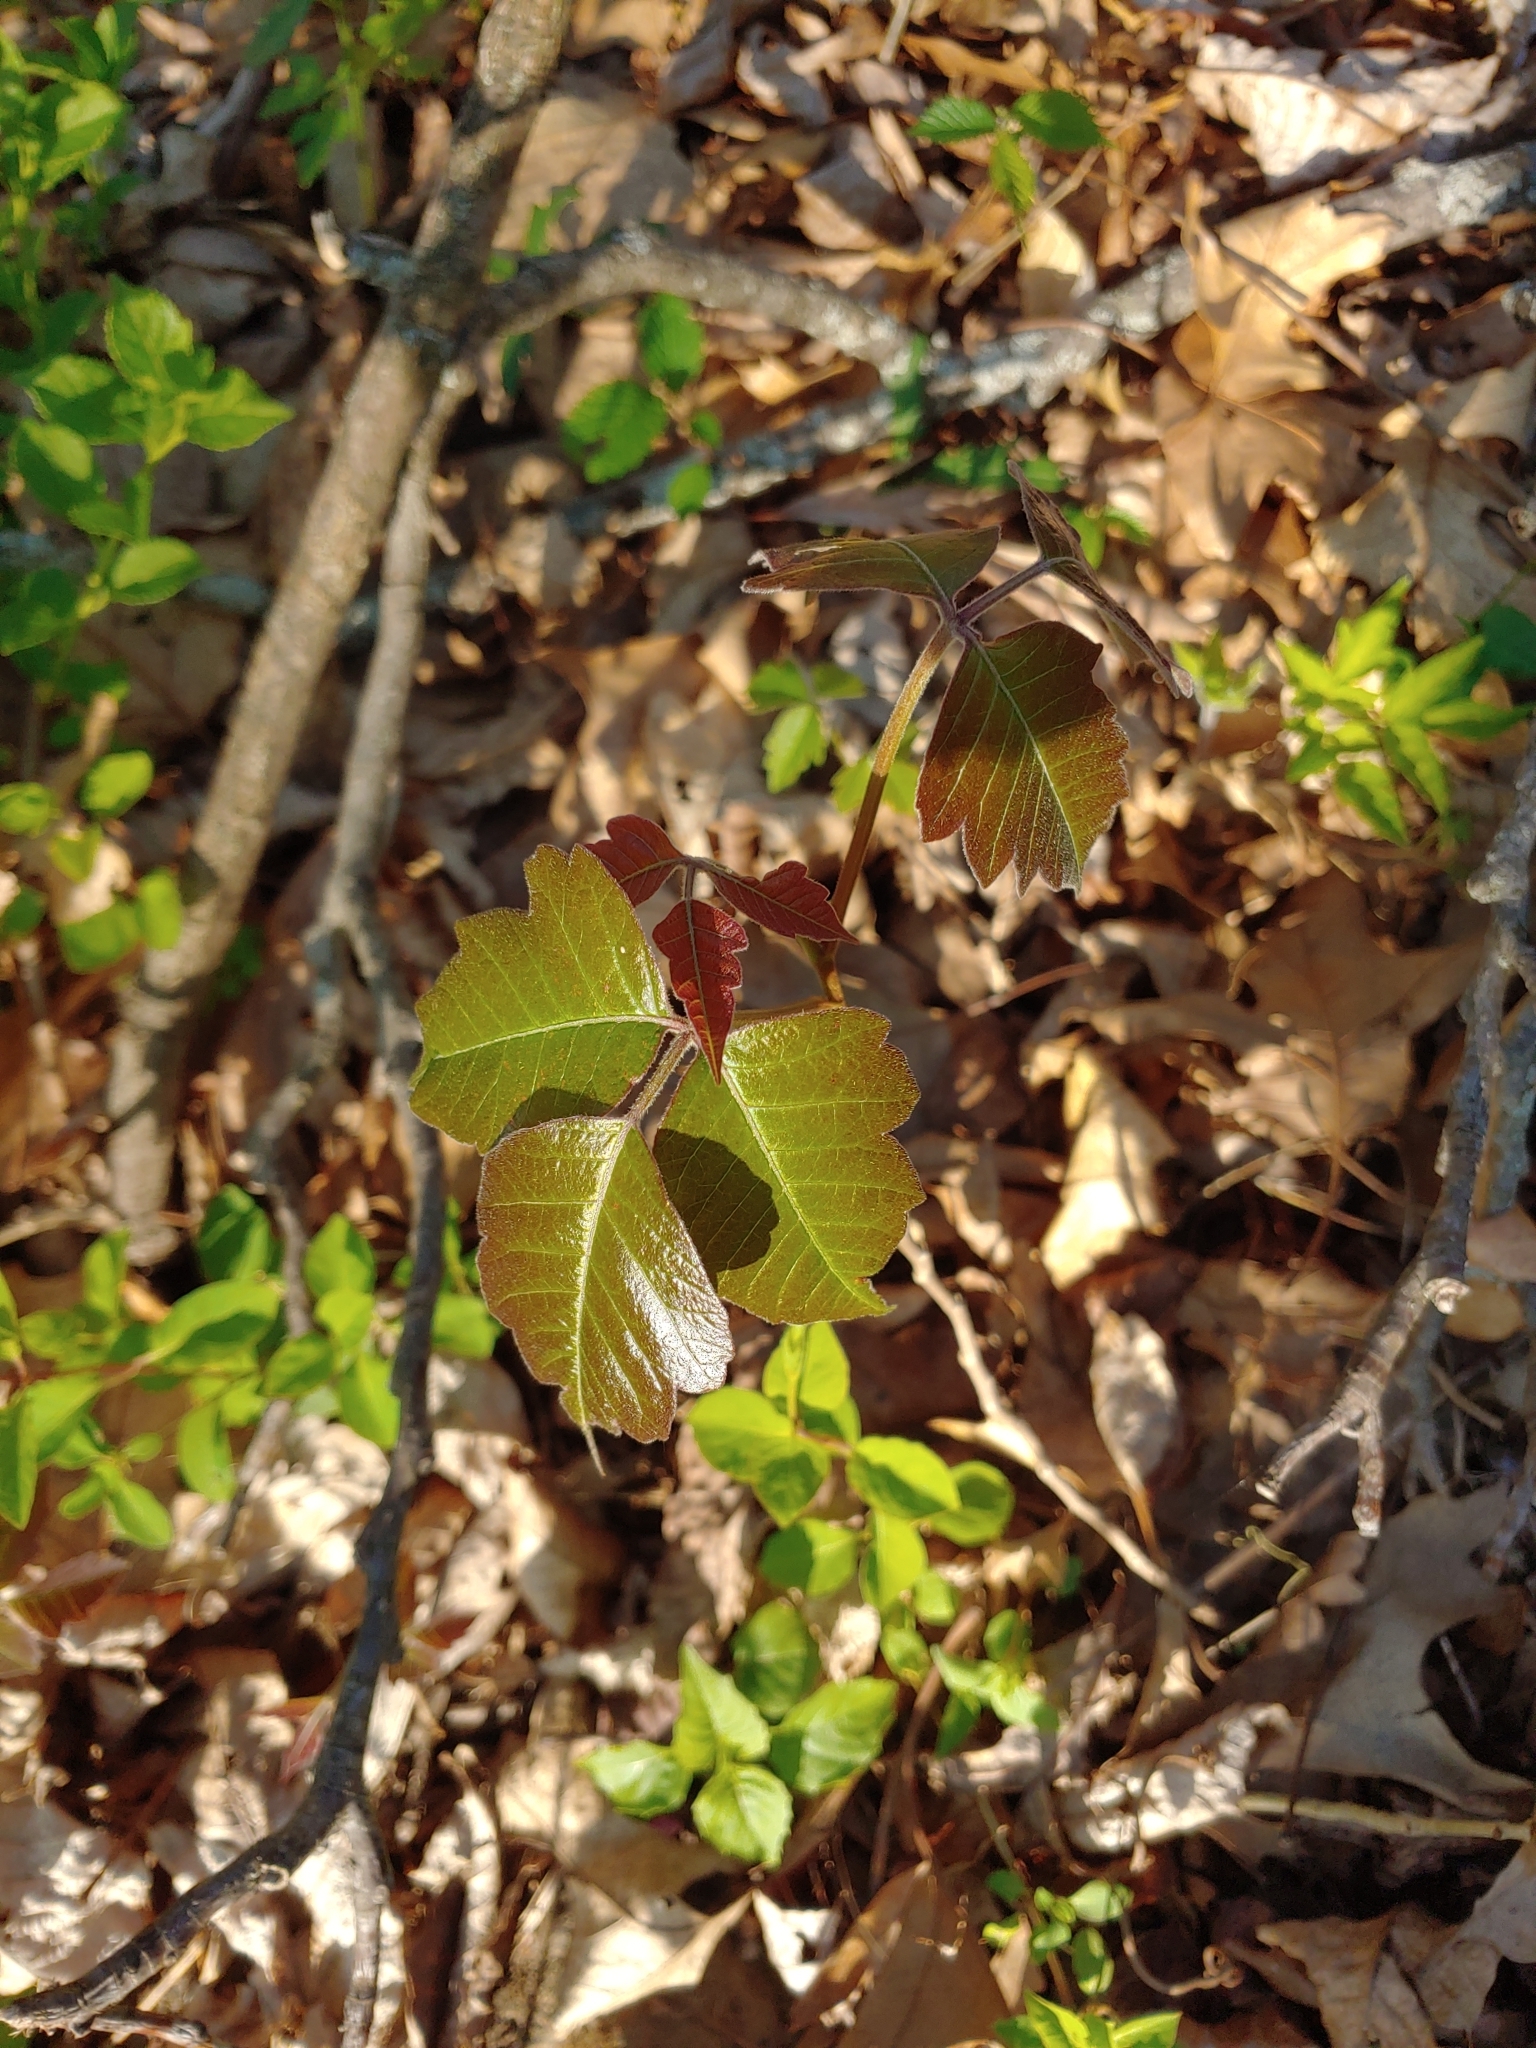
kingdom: Plantae
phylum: Tracheophyta
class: Magnoliopsida
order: Sapindales
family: Anacardiaceae
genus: Toxicodendron
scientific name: Toxicodendron radicans
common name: Poison ivy
